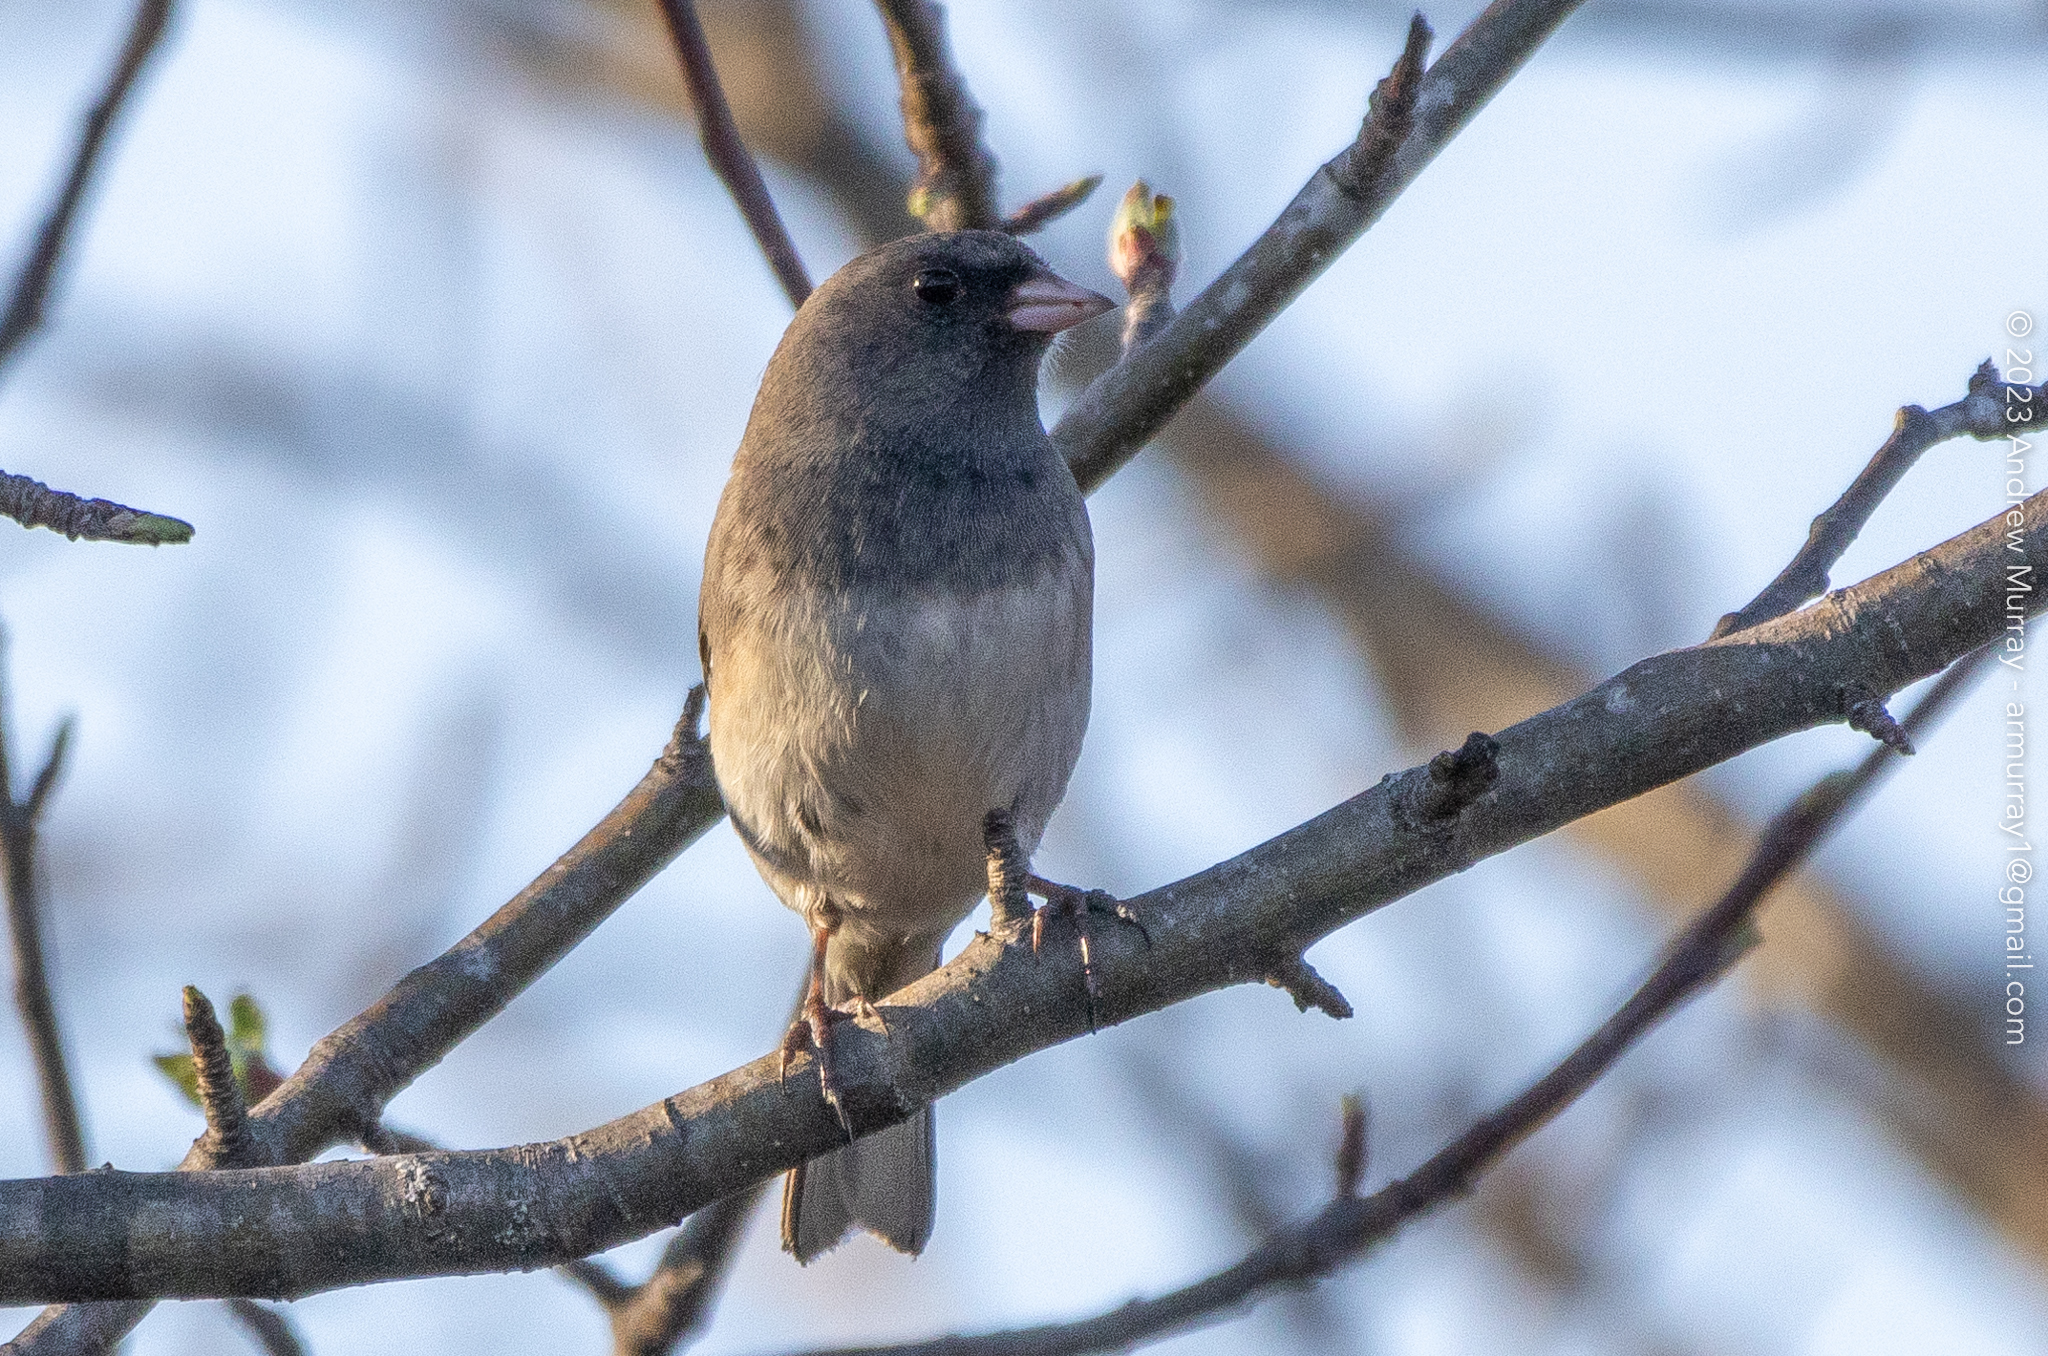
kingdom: Animalia
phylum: Chordata
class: Aves
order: Passeriformes
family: Passerellidae
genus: Junco
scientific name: Junco hyemalis
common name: Dark-eyed junco
